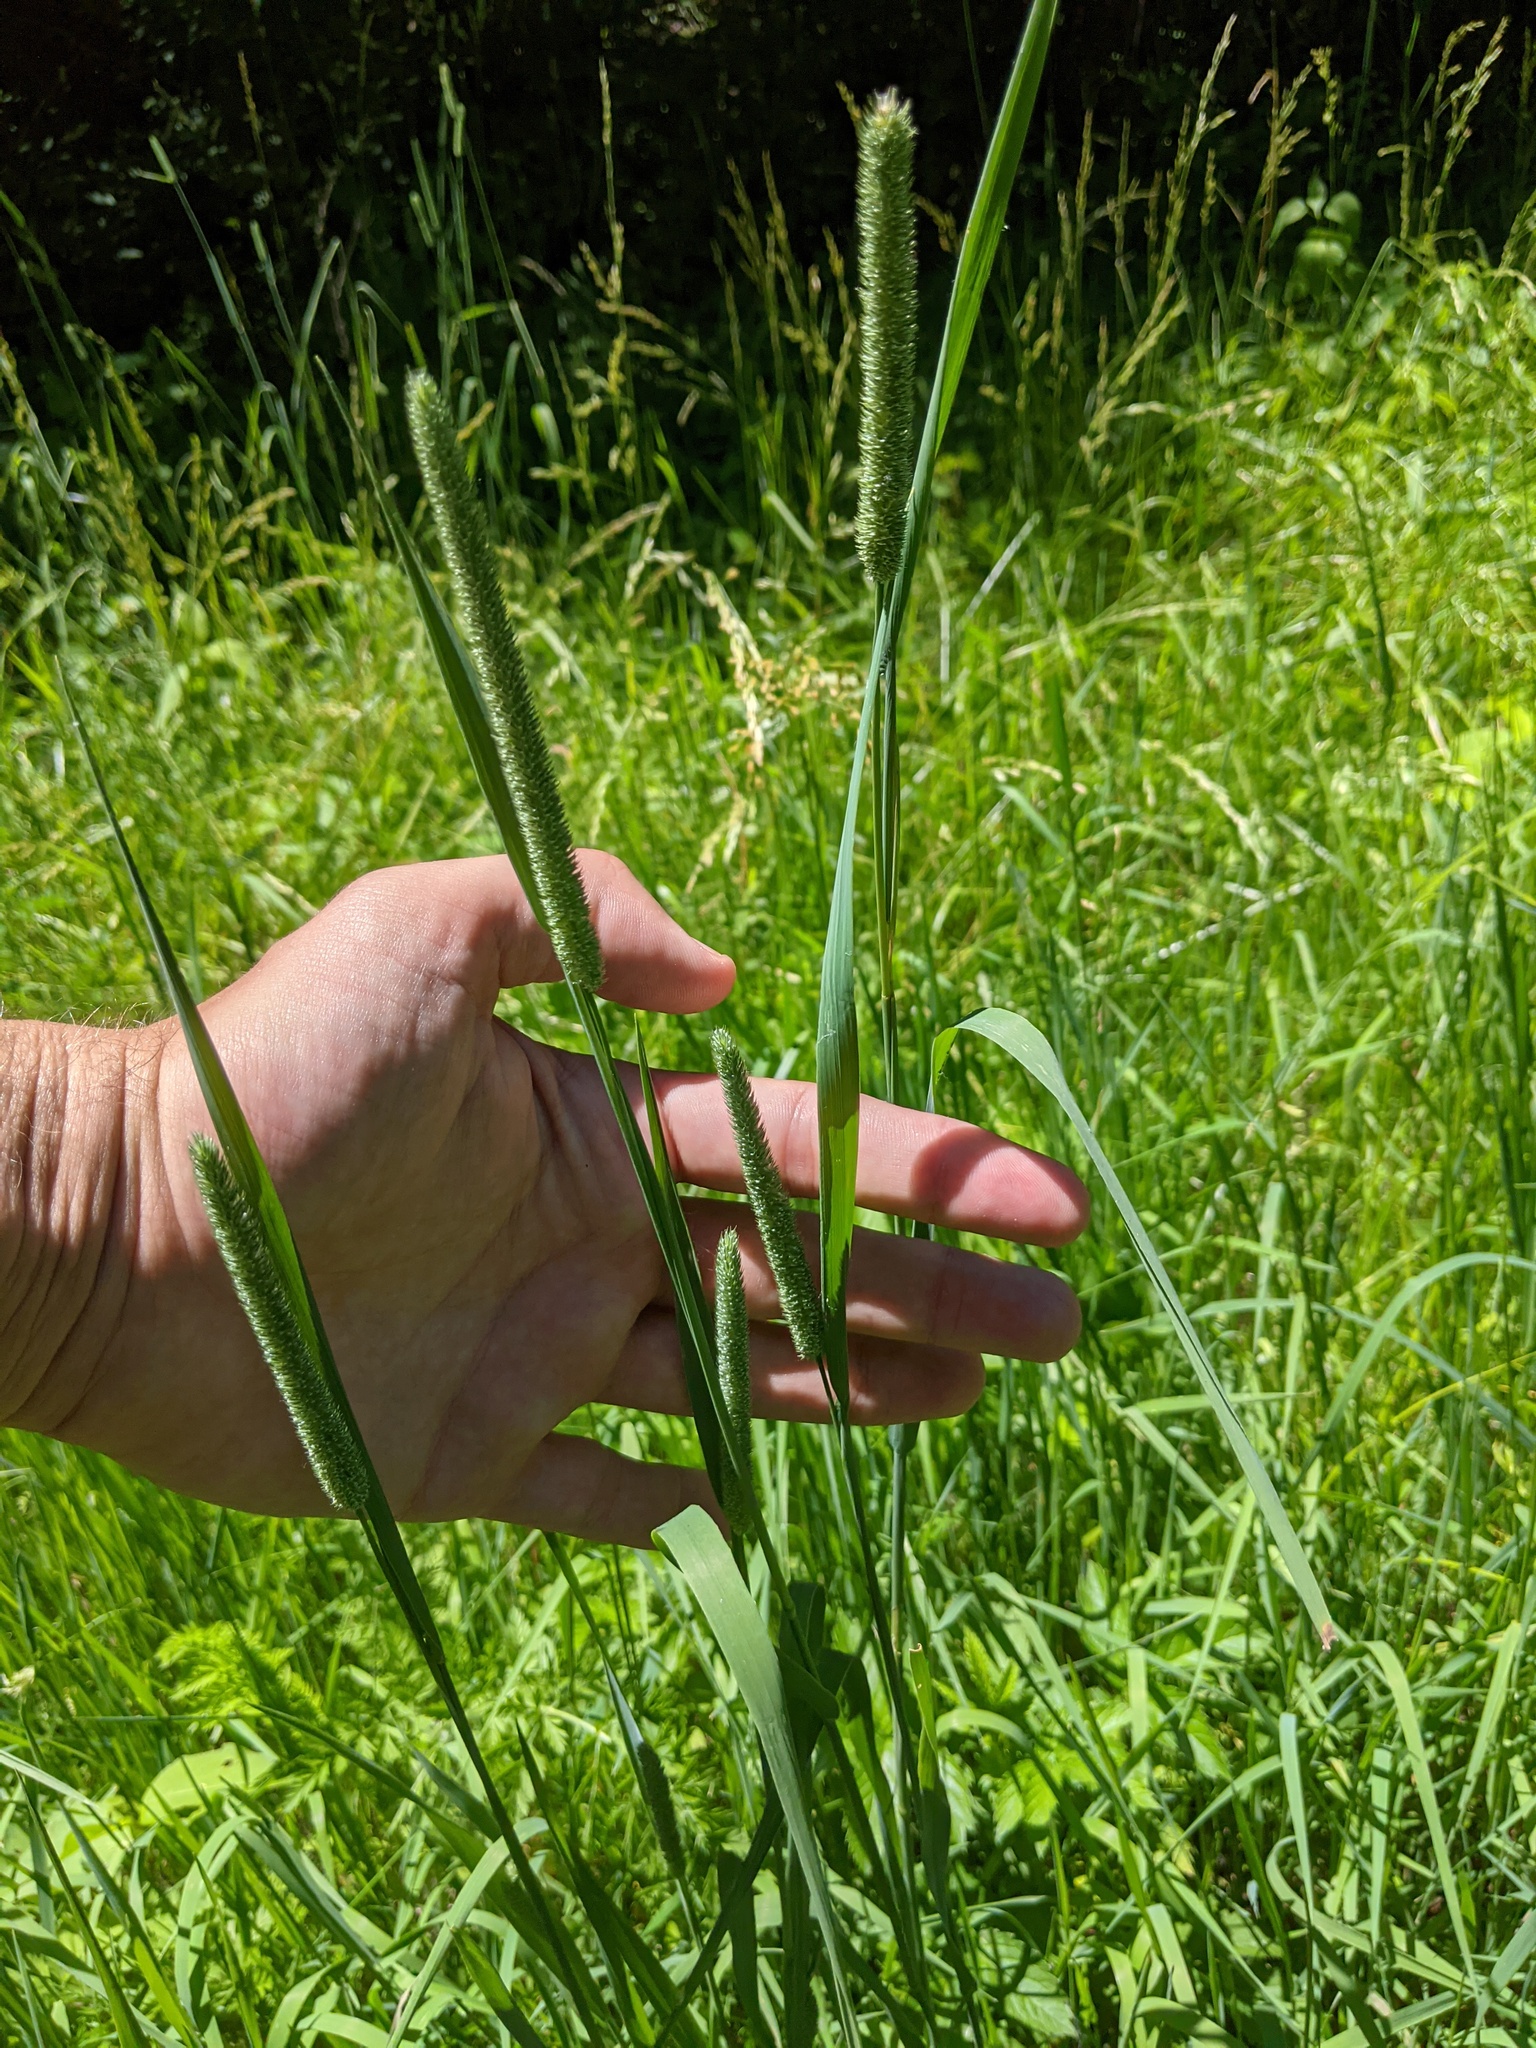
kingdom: Plantae
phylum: Tracheophyta
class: Liliopsida
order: Poales
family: Poaceae
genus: Phleum
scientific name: Phleum pratense
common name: Timothy grass
